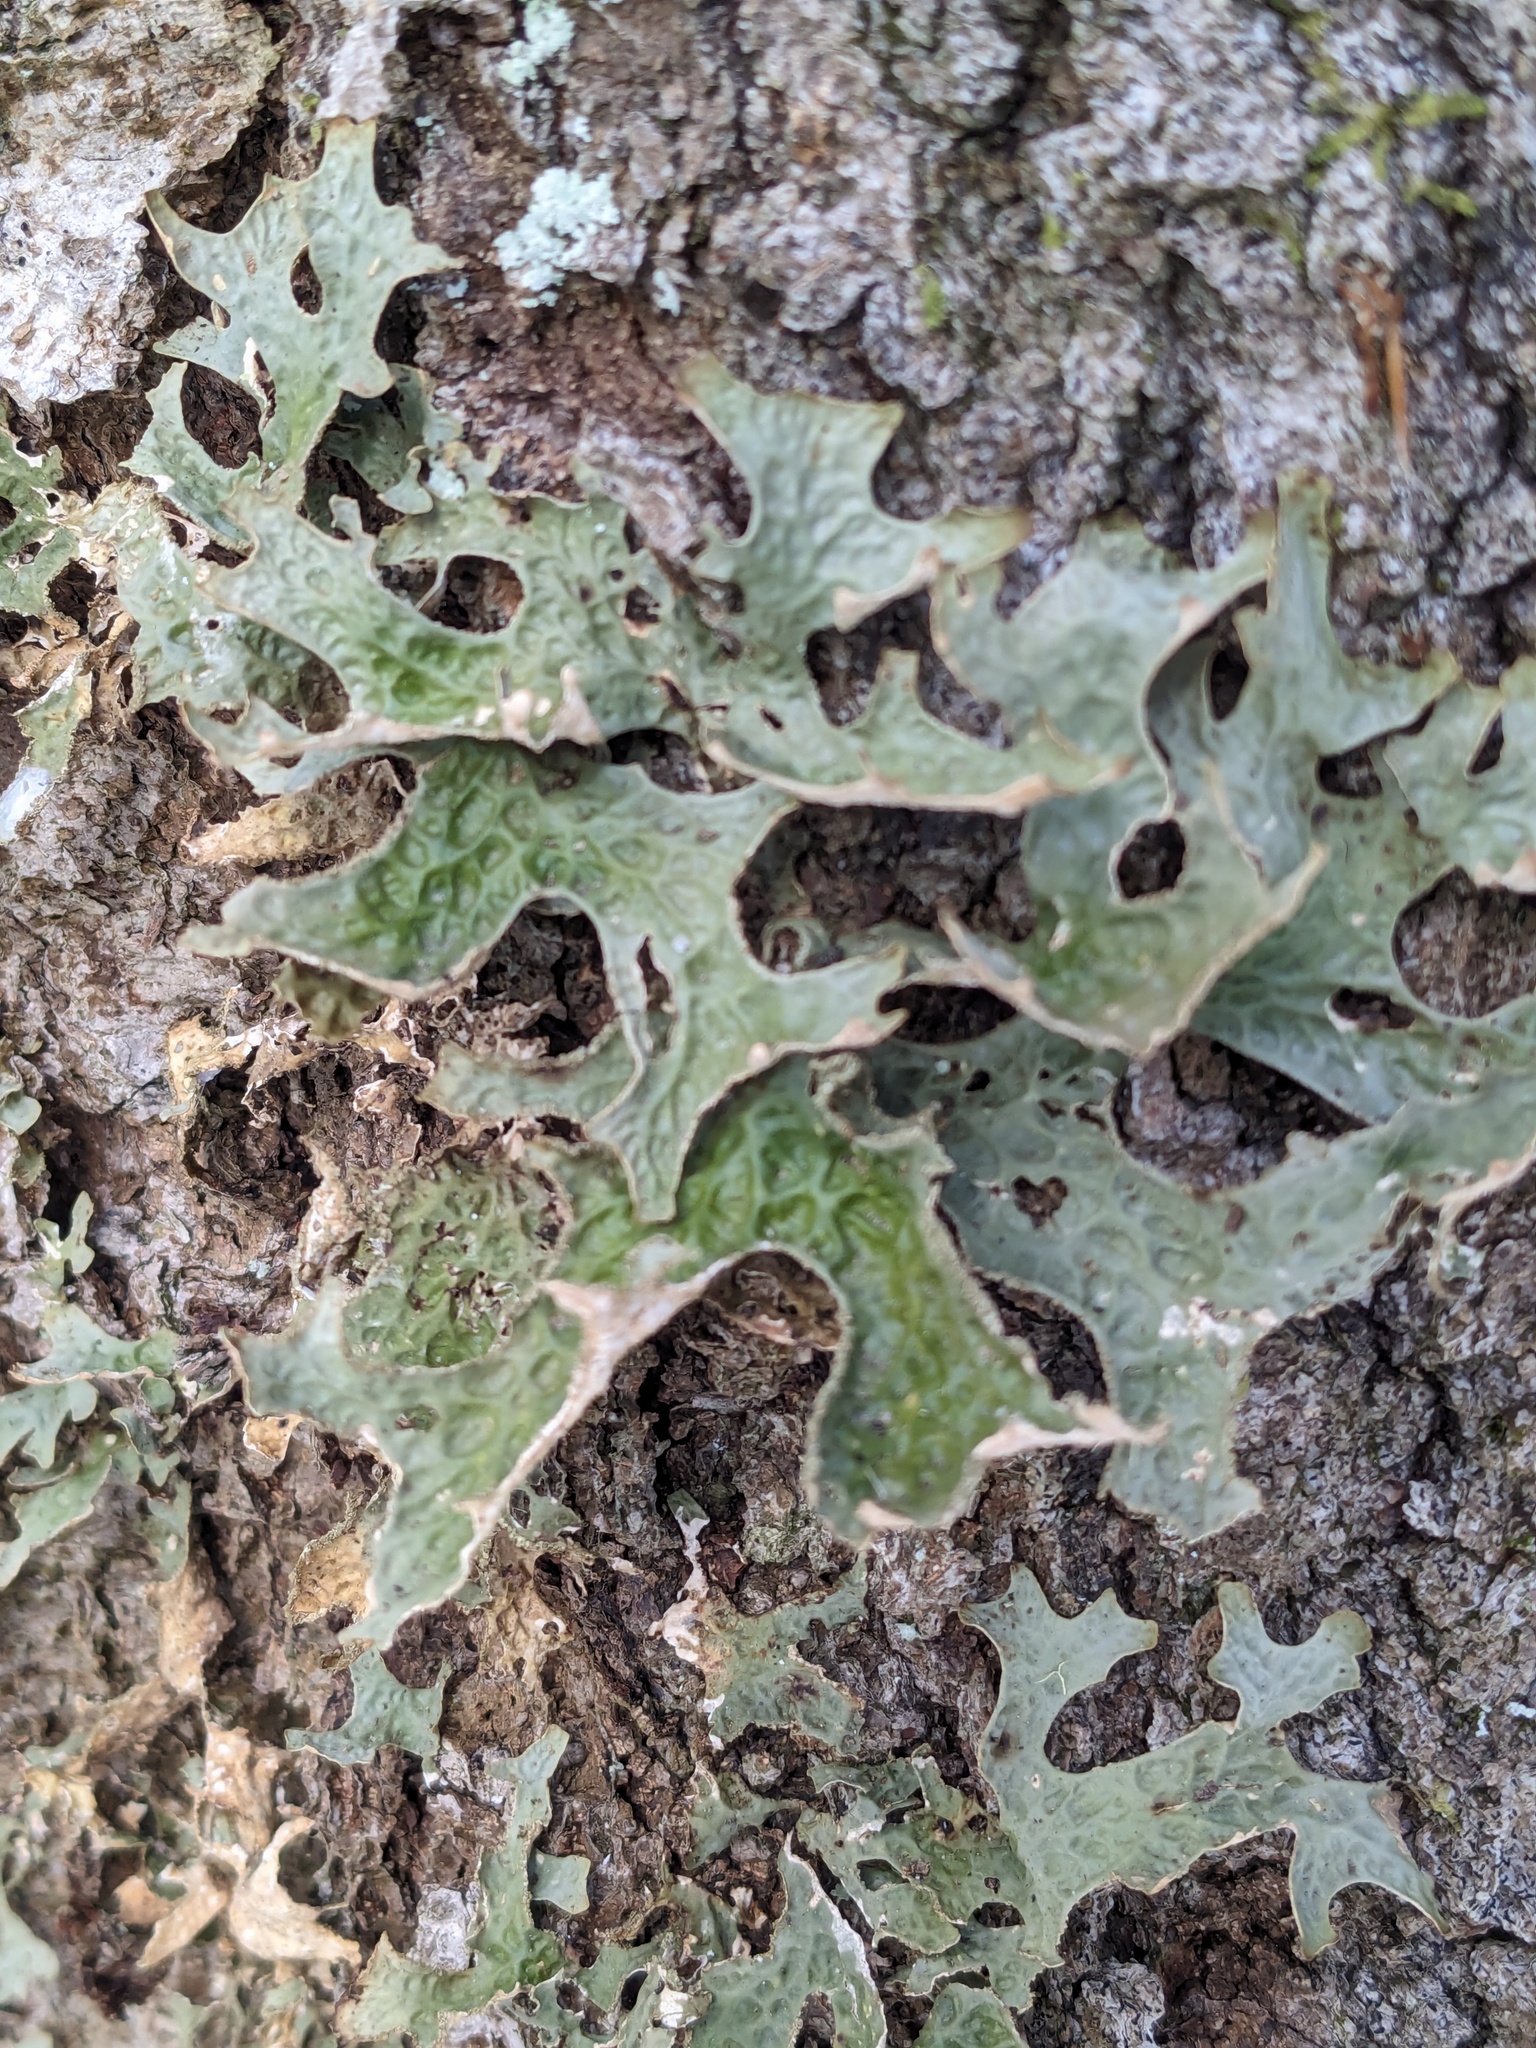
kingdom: Fungi
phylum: Ascomycota
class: Lecanoromycetes
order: Peltigerales
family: Lobariaceae
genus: Lobaria
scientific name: Lobaria pulmonaria
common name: Lungwort
